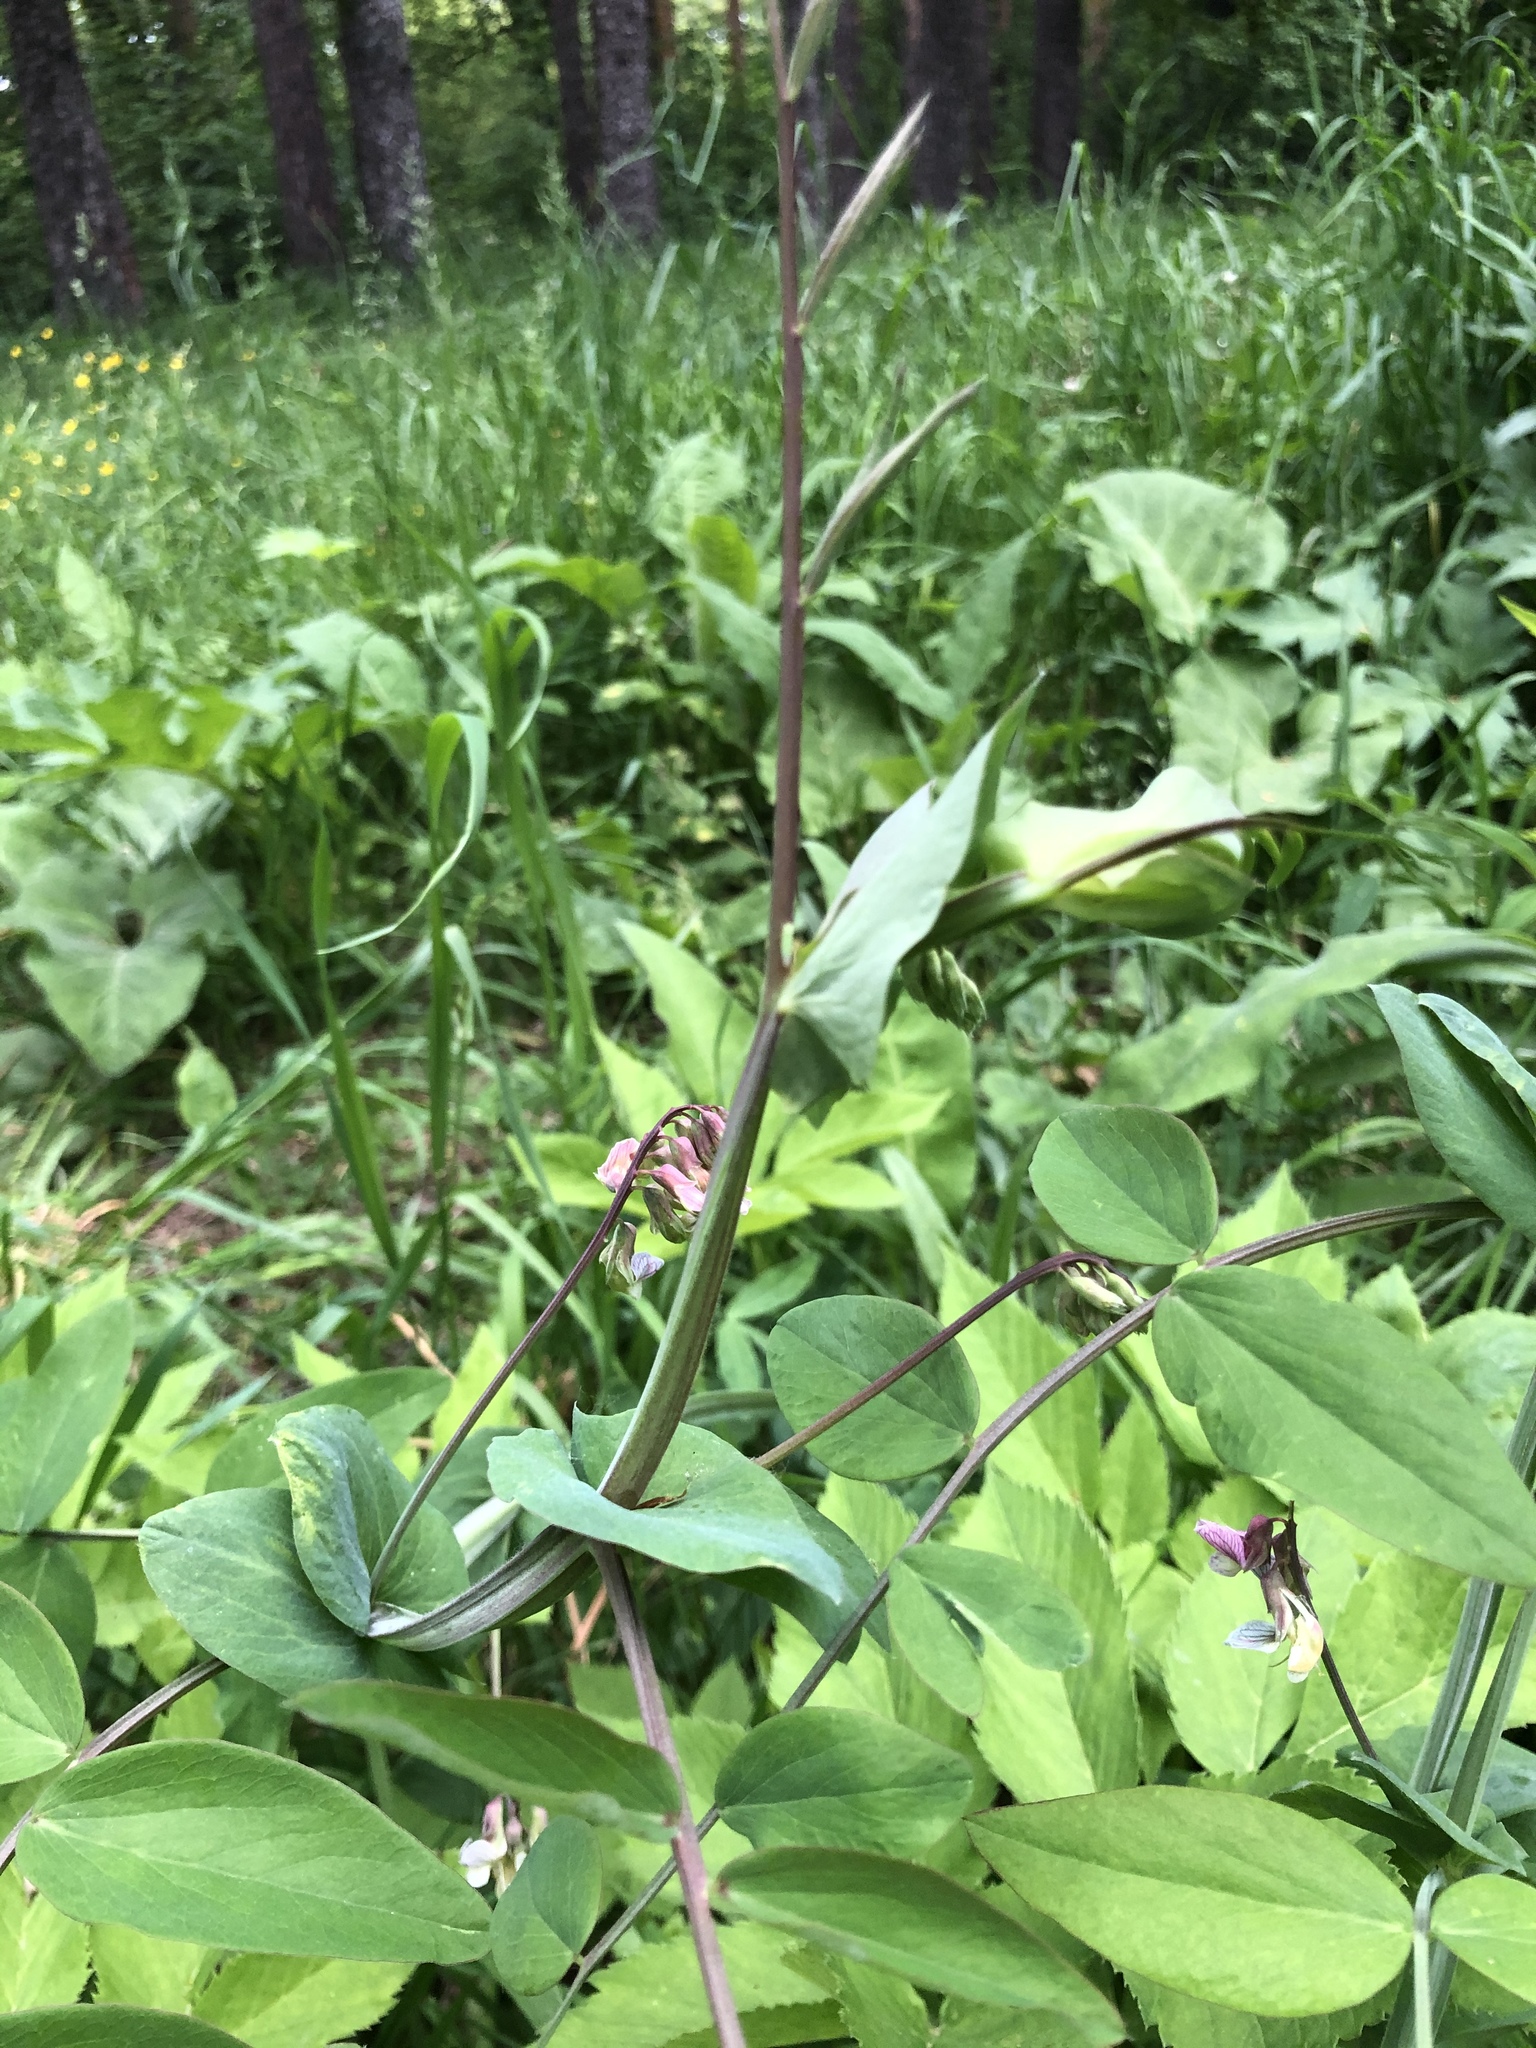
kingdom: Plantae
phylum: Tracheophyta
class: Magnoliopsida
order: Fabales
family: Fabaceae
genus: Lathyrus
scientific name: Lathyrus pisiformis
